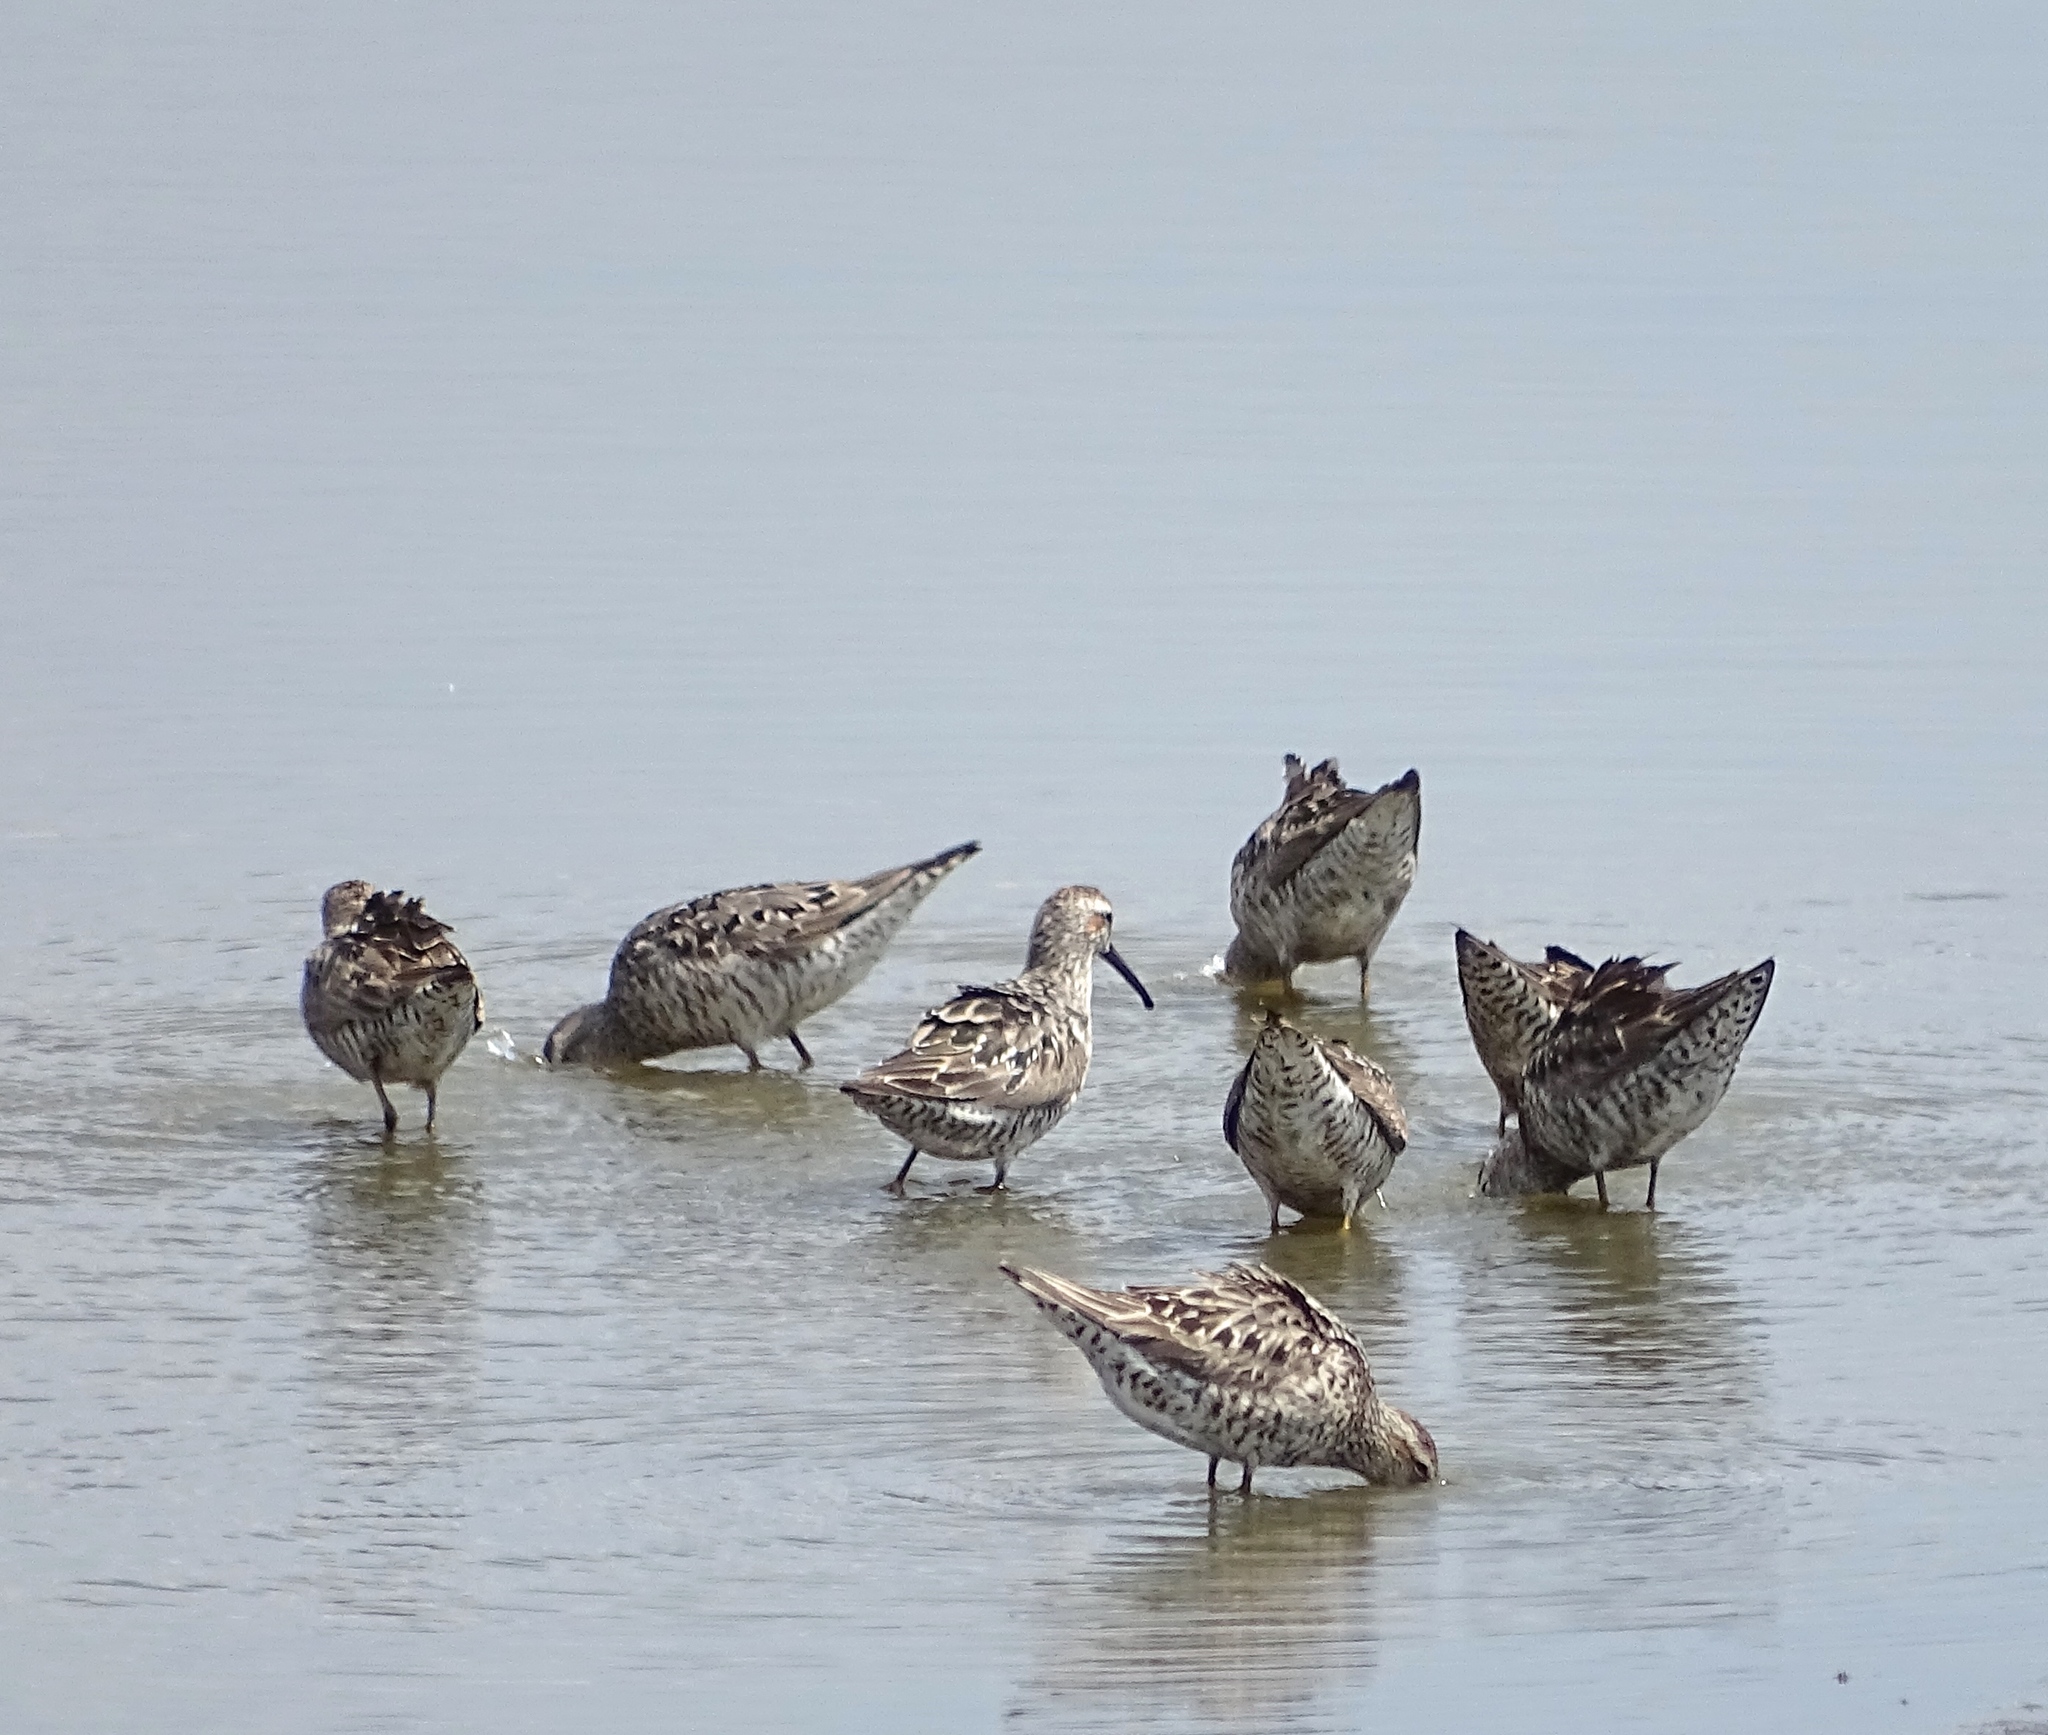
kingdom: Animalia
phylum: Chordata
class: Aves
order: Charadriiformes
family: Scolopacidae
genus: Calidris
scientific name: Calidris himantopus
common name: Stilt sandpiper
